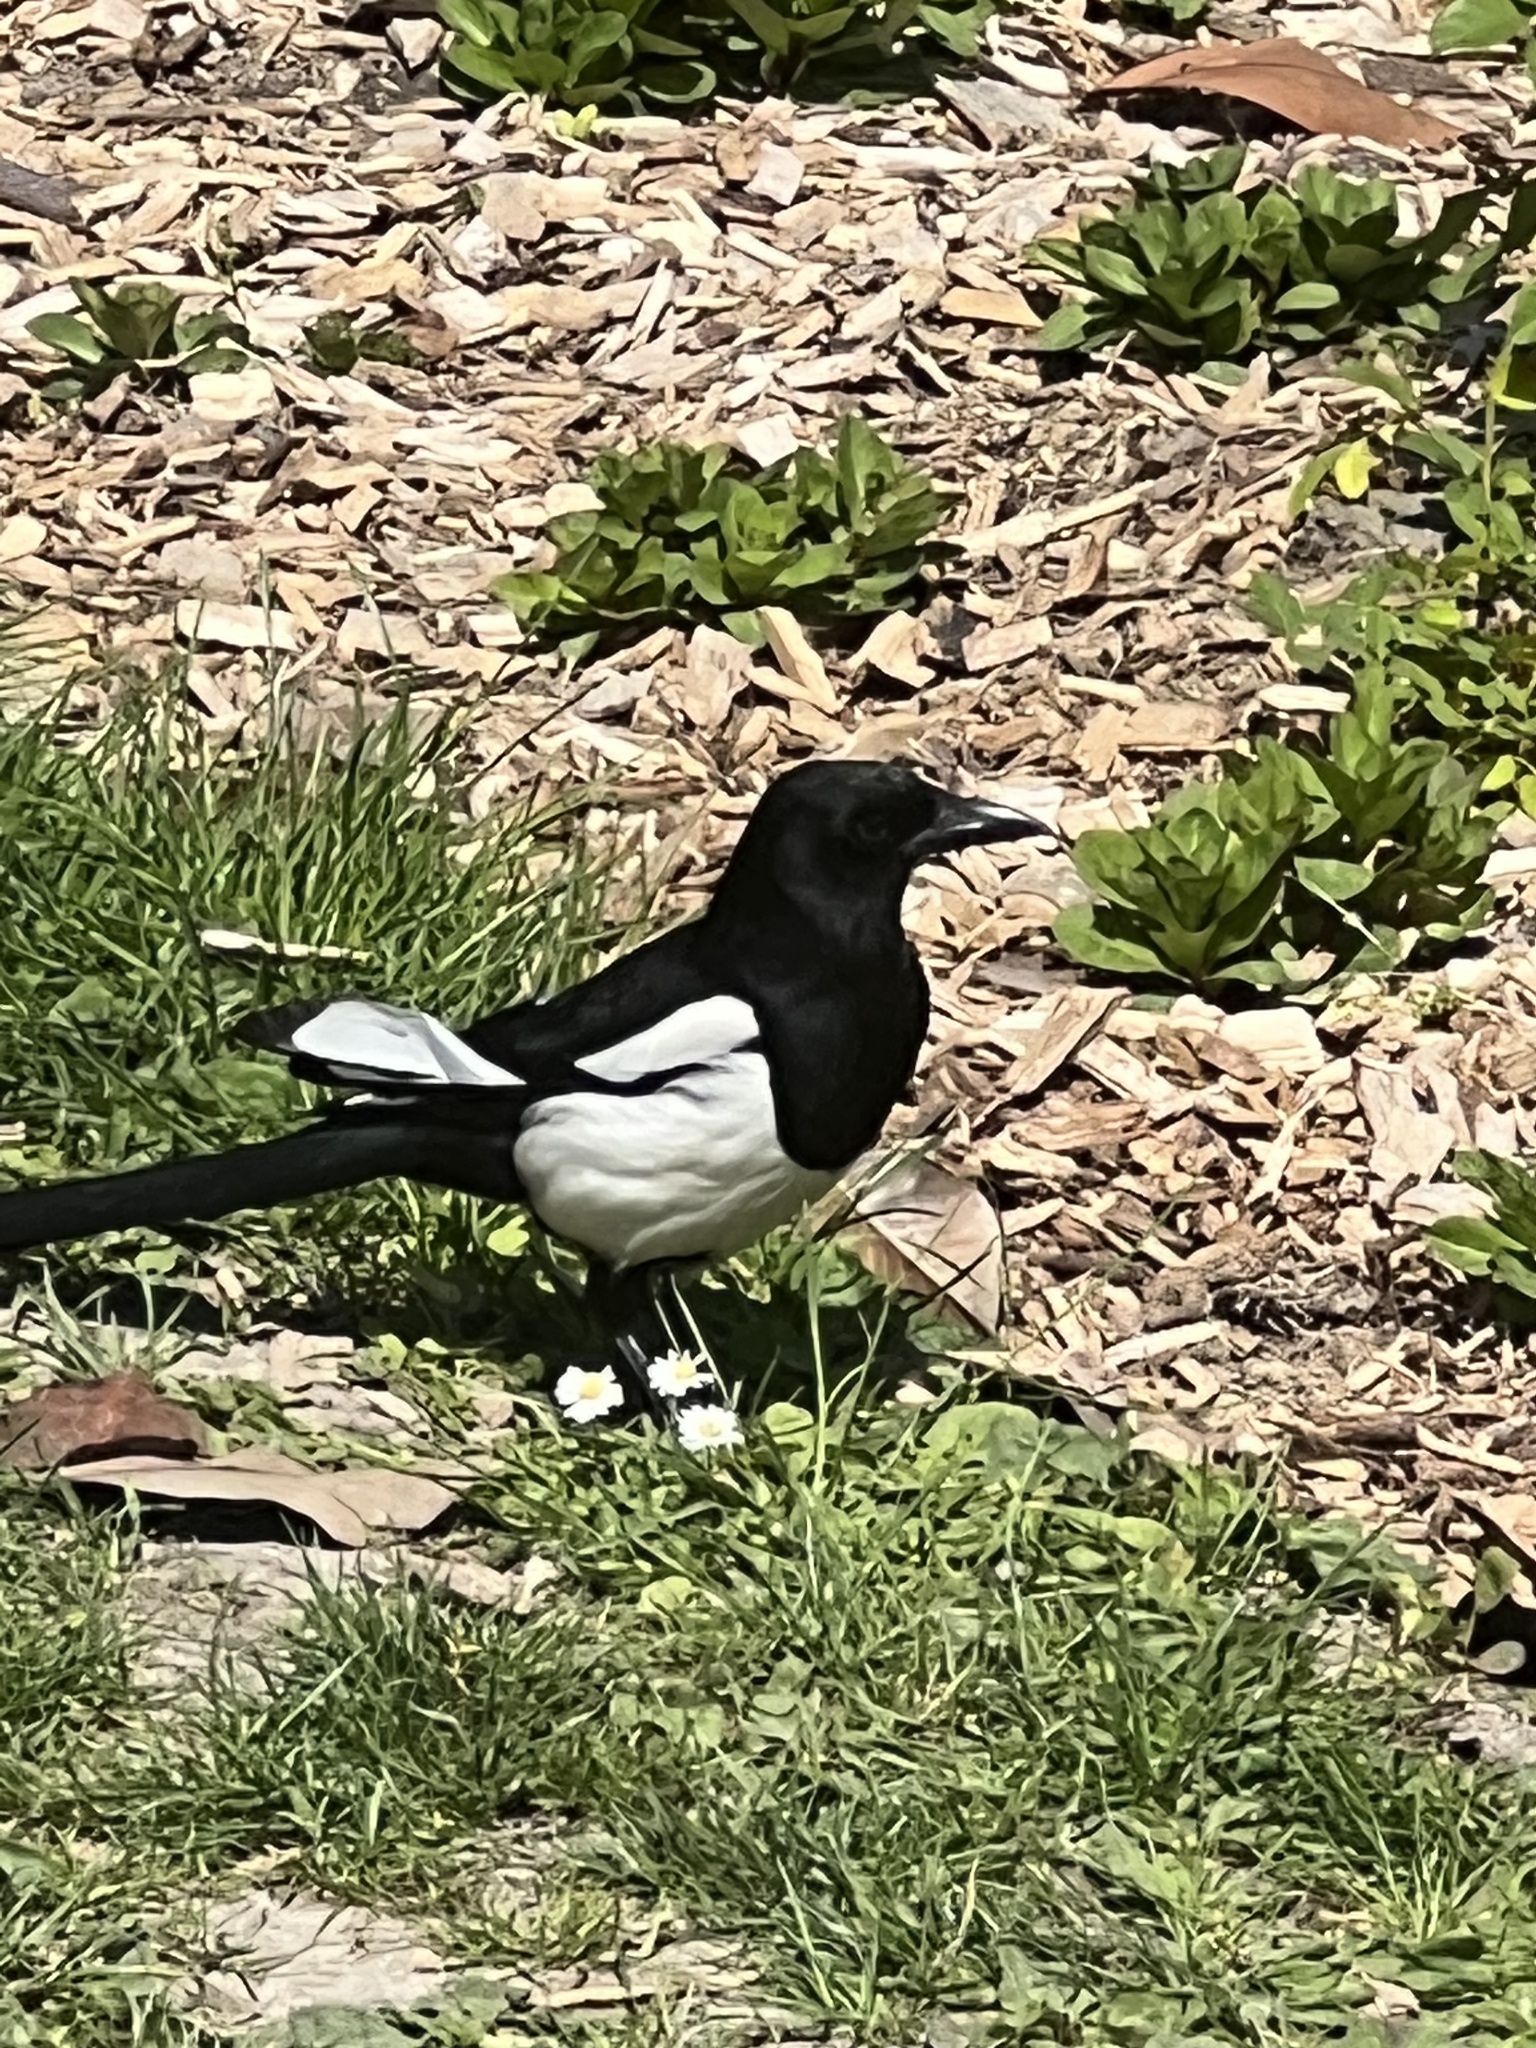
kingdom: Animalia
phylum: Chordata
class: Aves
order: Passeriformes
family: Corvidae
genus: Pica
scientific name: Pica pica
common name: Eurasian magpie
